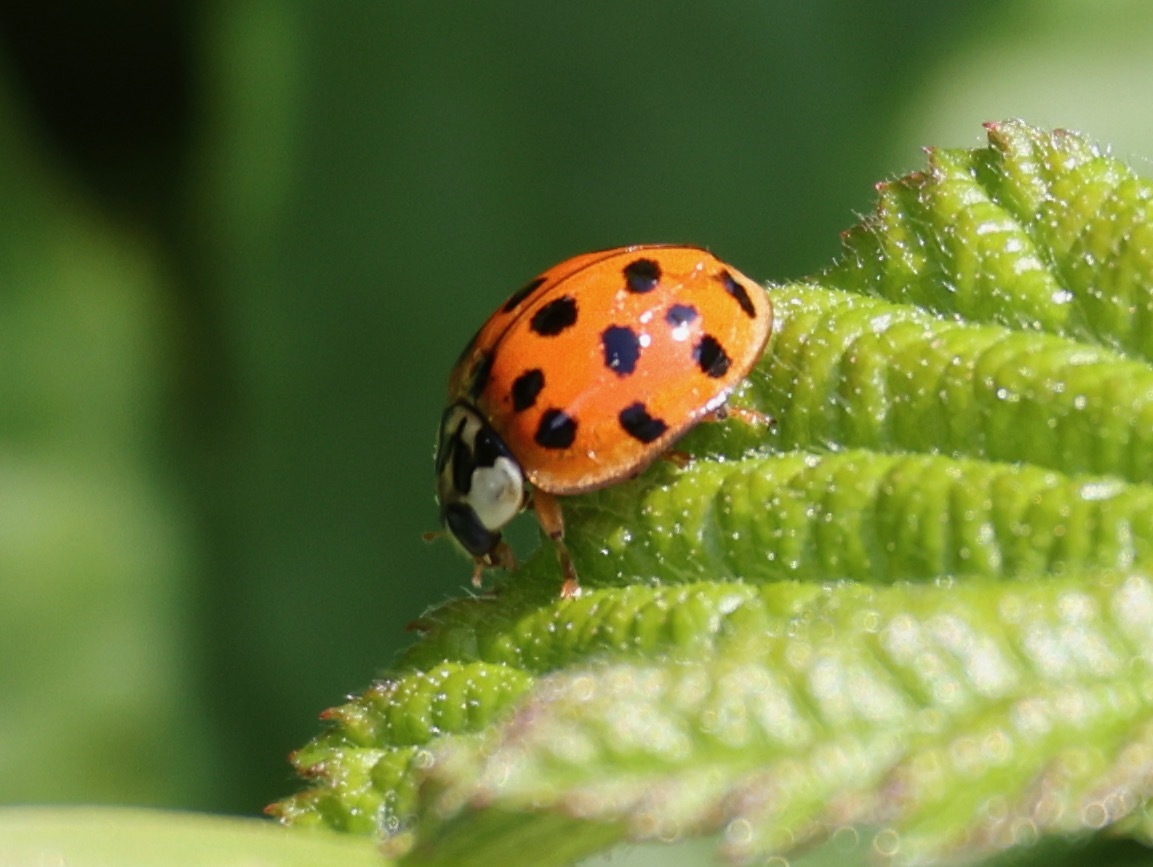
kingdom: Animalia
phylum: Arthropoda
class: Insecta
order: Coleoptera
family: Coccinellidae
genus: Harmonia
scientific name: Harmonia axyridis
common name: Harlequin ladybird
